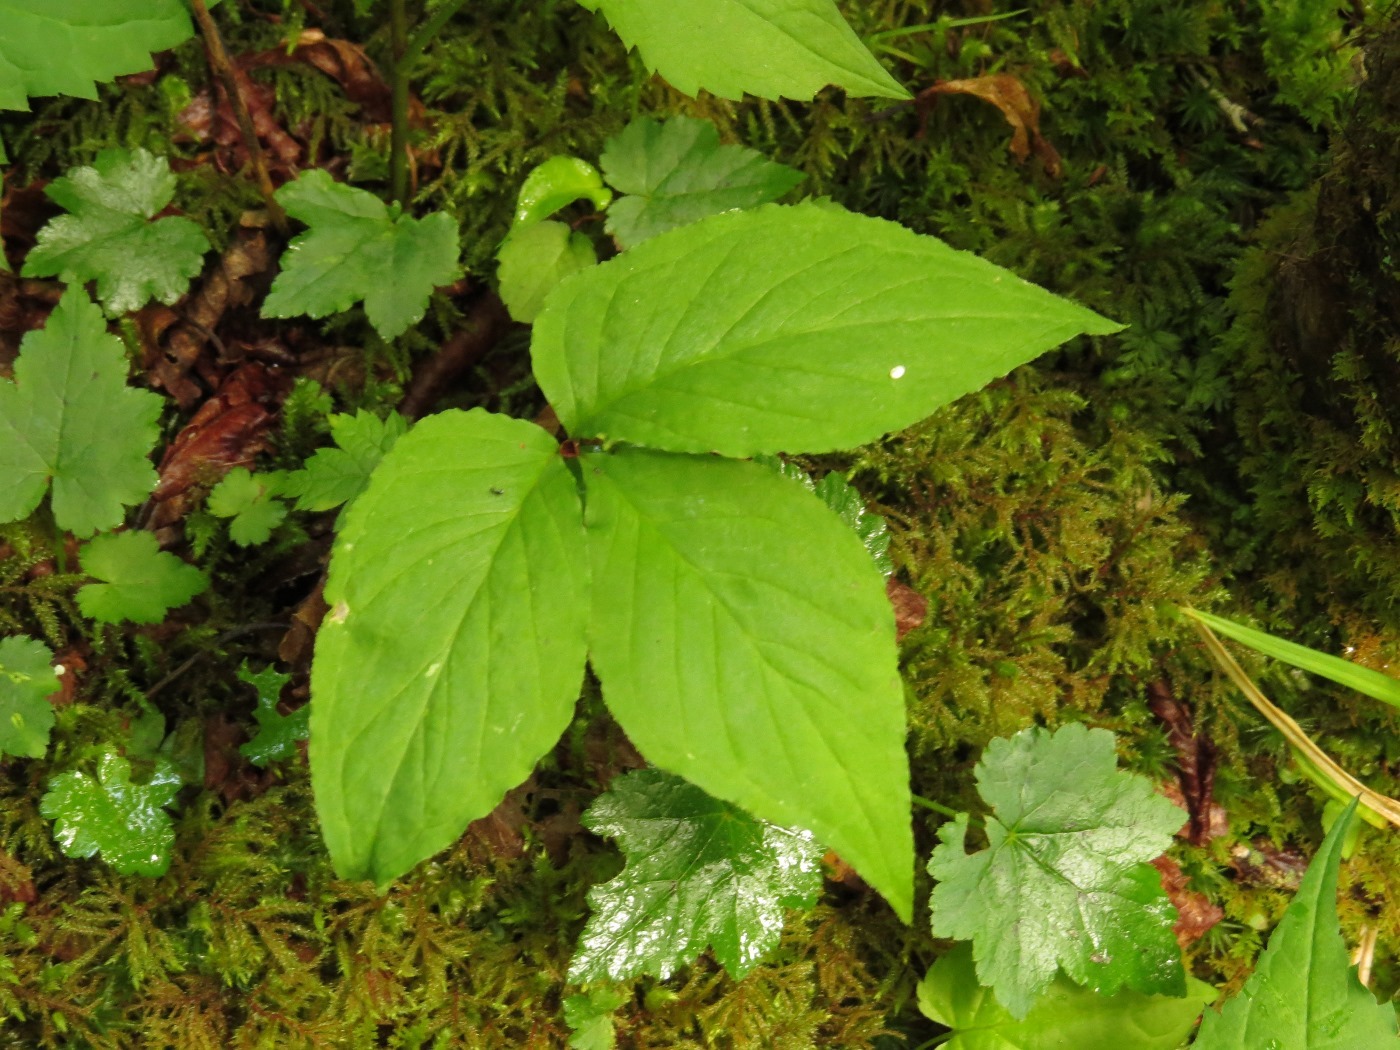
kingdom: Plantae
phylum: Tracheophyta
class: Liliopsida
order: Alismatales
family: Araceae
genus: Arisaema
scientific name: Arisaema triphyllum
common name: Jack-in-the-pulpit
